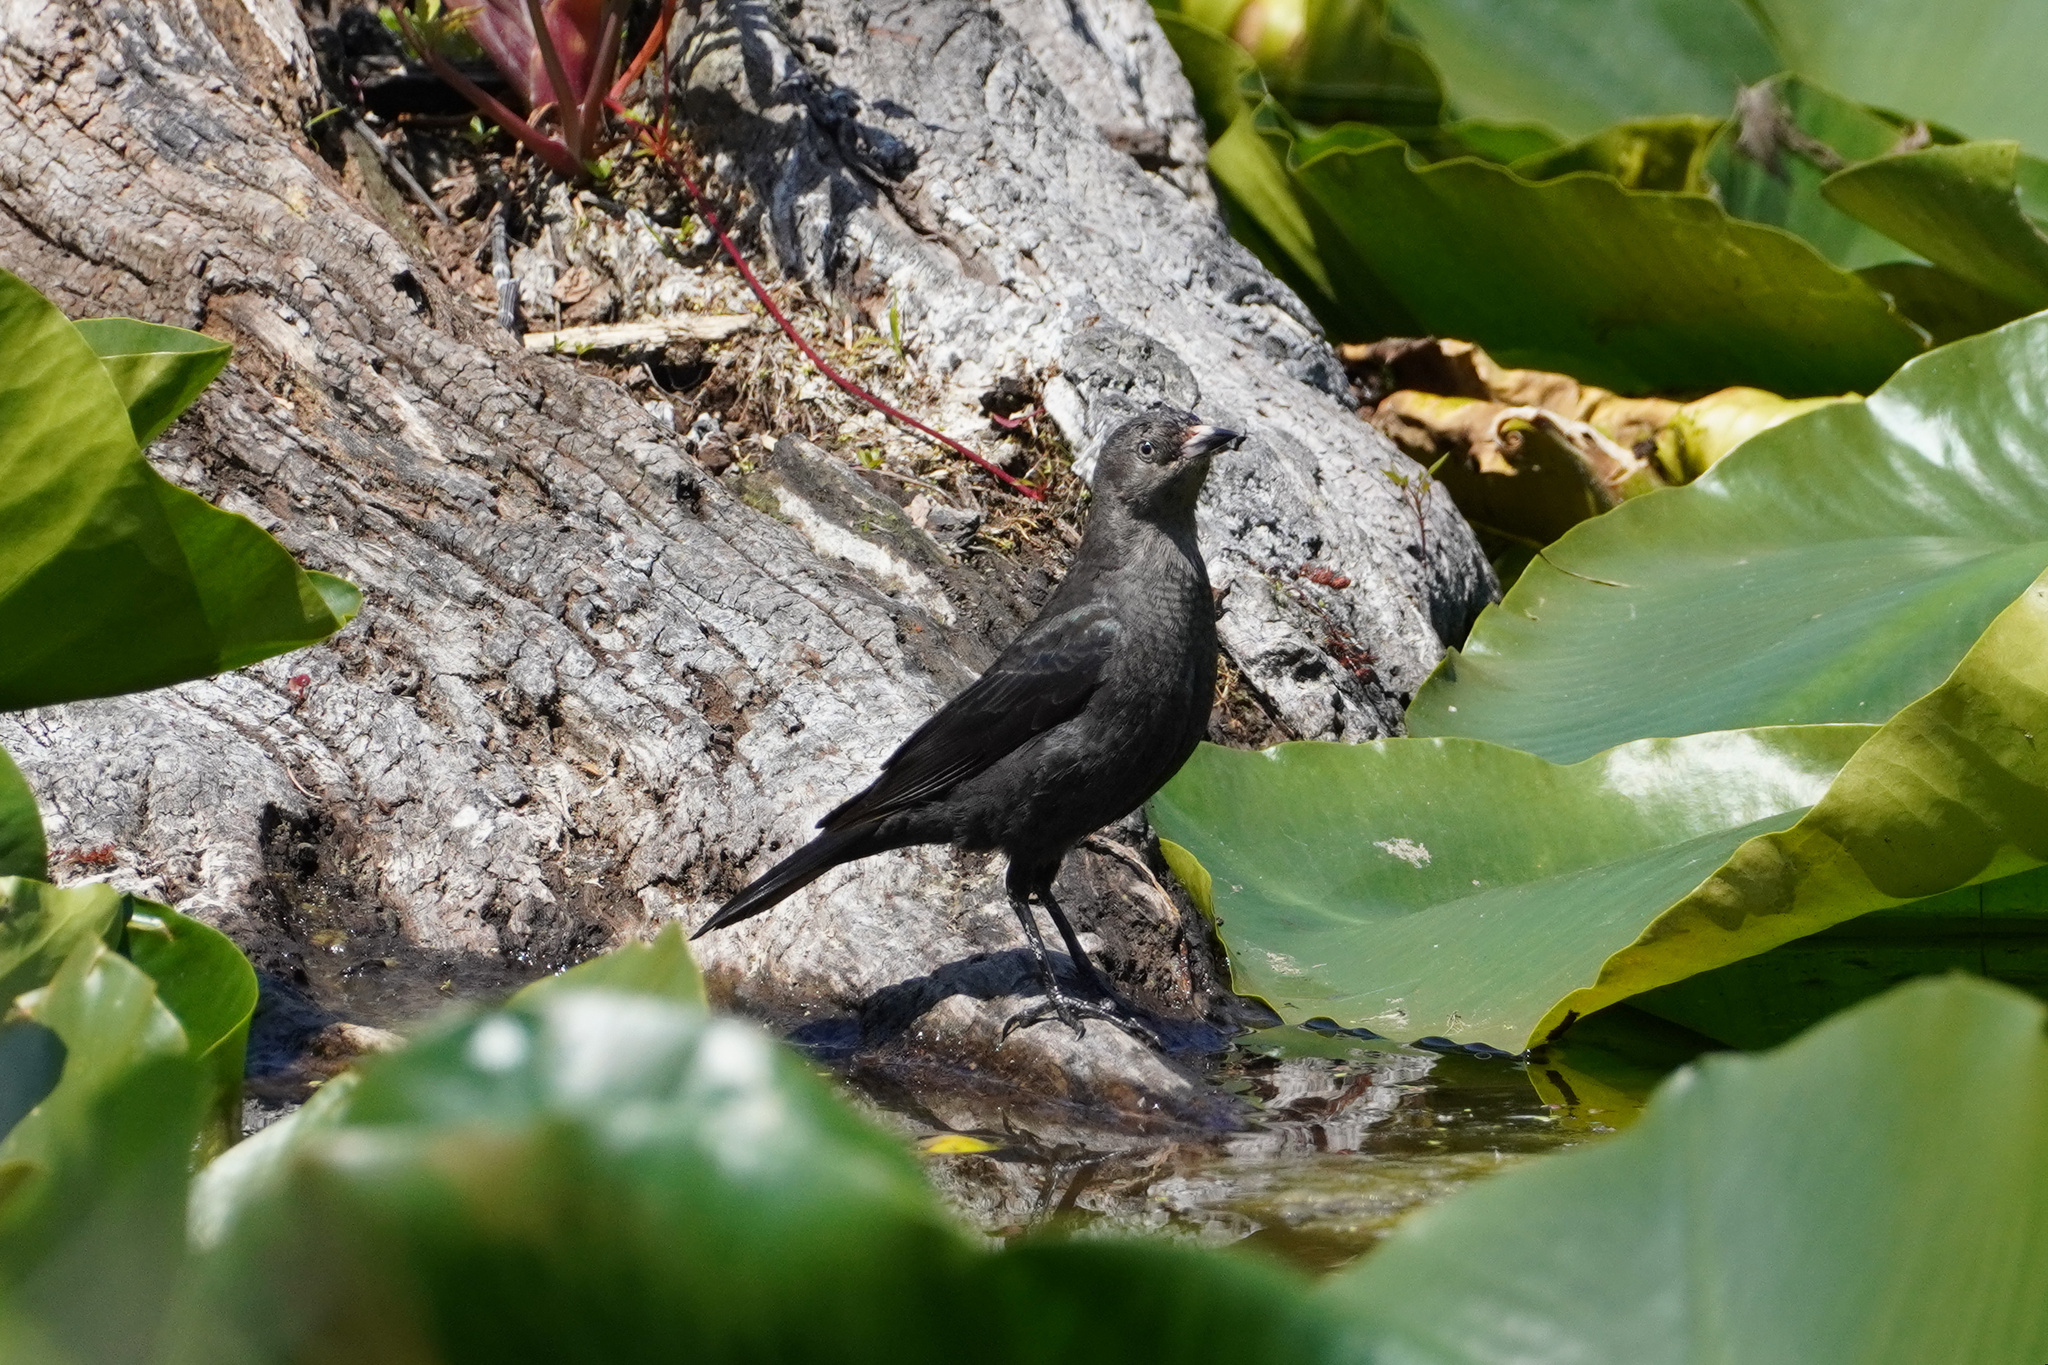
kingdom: Animalia
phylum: Chordata
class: Aves
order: Passeriformes
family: Icteridae
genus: Euphagus
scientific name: Euphagus cyanocephalus
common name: Brewer's blackbird
